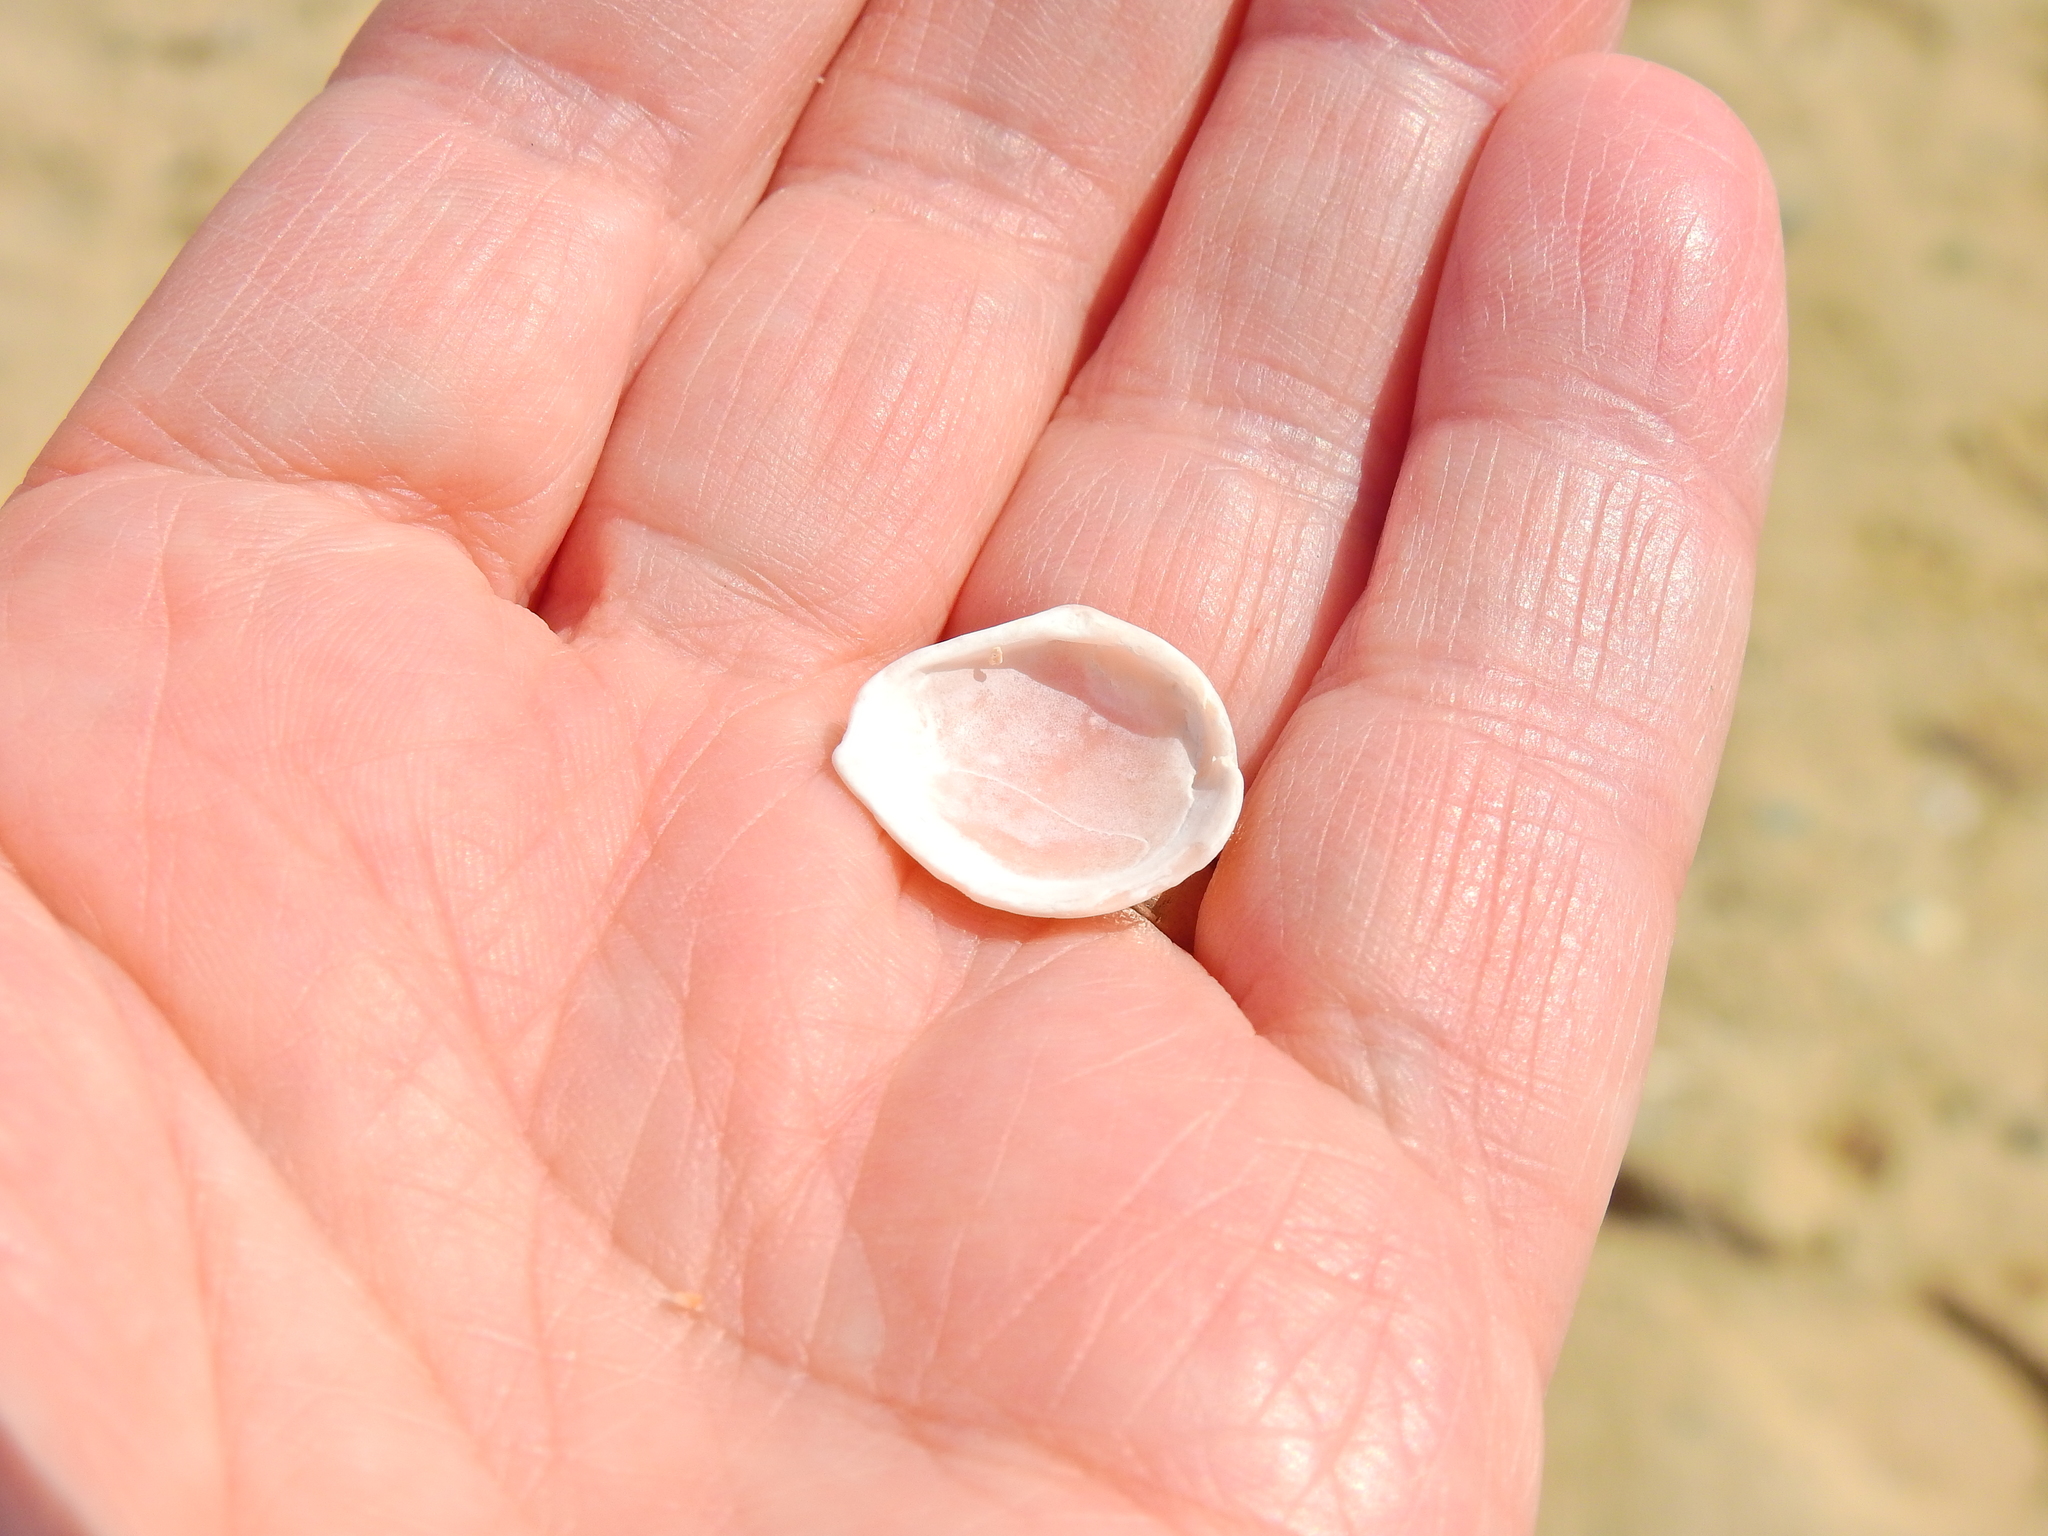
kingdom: Animalia
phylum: Mollusca
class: Bivalvia
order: Cardiida
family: Tellinidae
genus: Macoma
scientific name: Macoma balthica
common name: Baltic tellin
